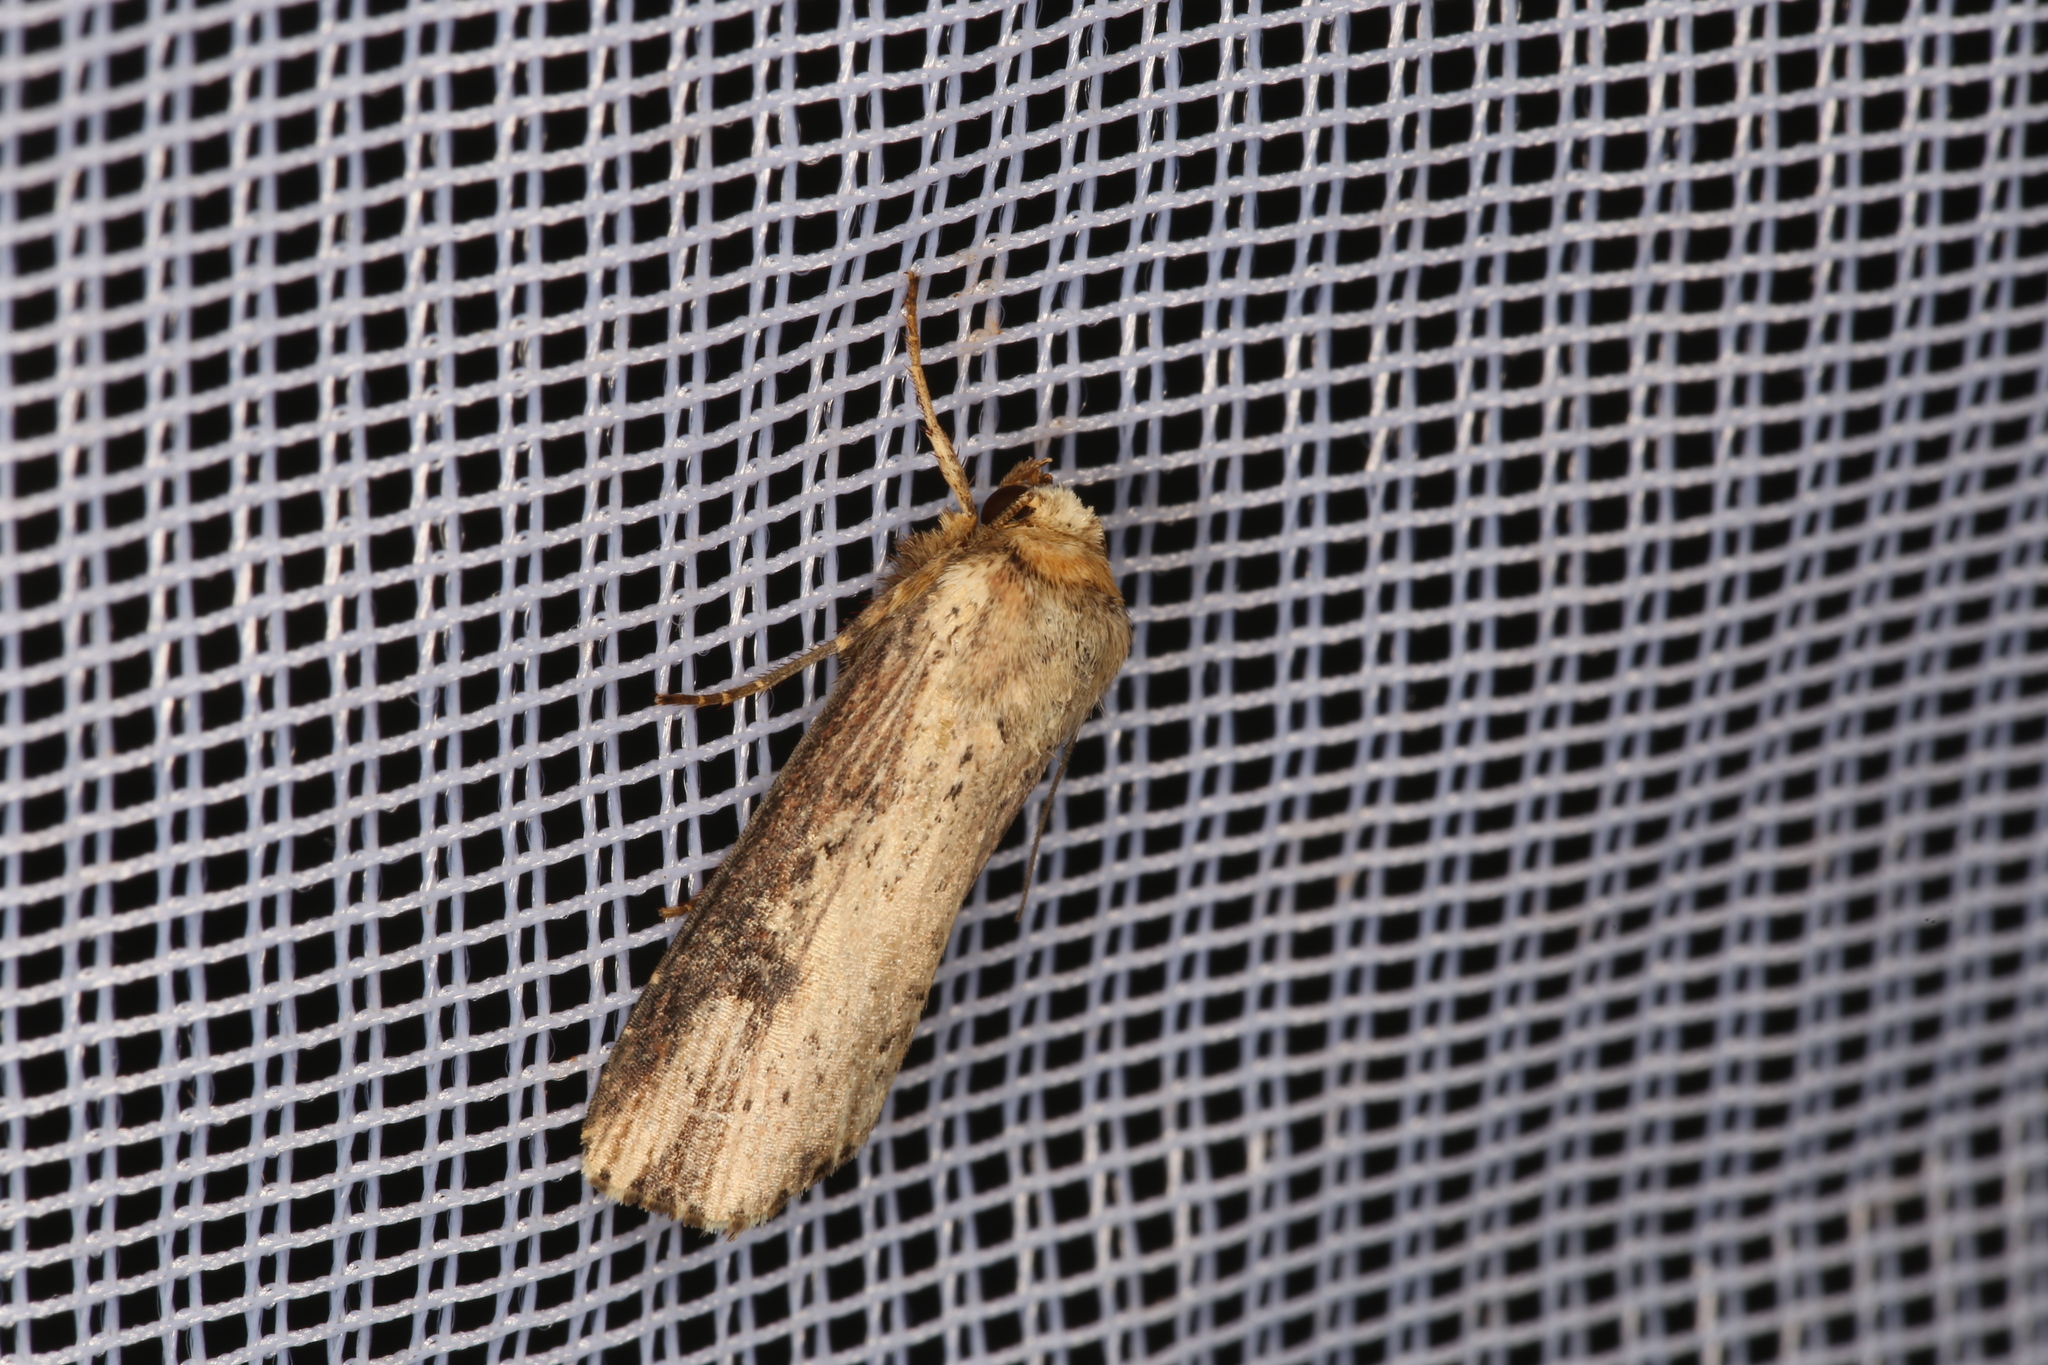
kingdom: Animalia
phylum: Arthropoda
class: Insecta
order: Lepidoptera
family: Noctuidae
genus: Axylia
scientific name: Axylia putris
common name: Flame
